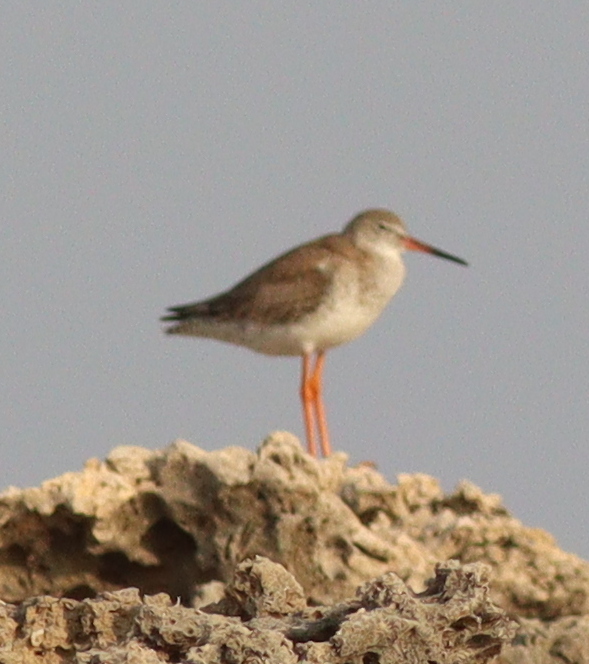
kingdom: Animalia
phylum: Chordata
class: Aves
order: Charadriiformes
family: Scolopacidae
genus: Tringa
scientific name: Tringa totanus
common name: Common redshank
